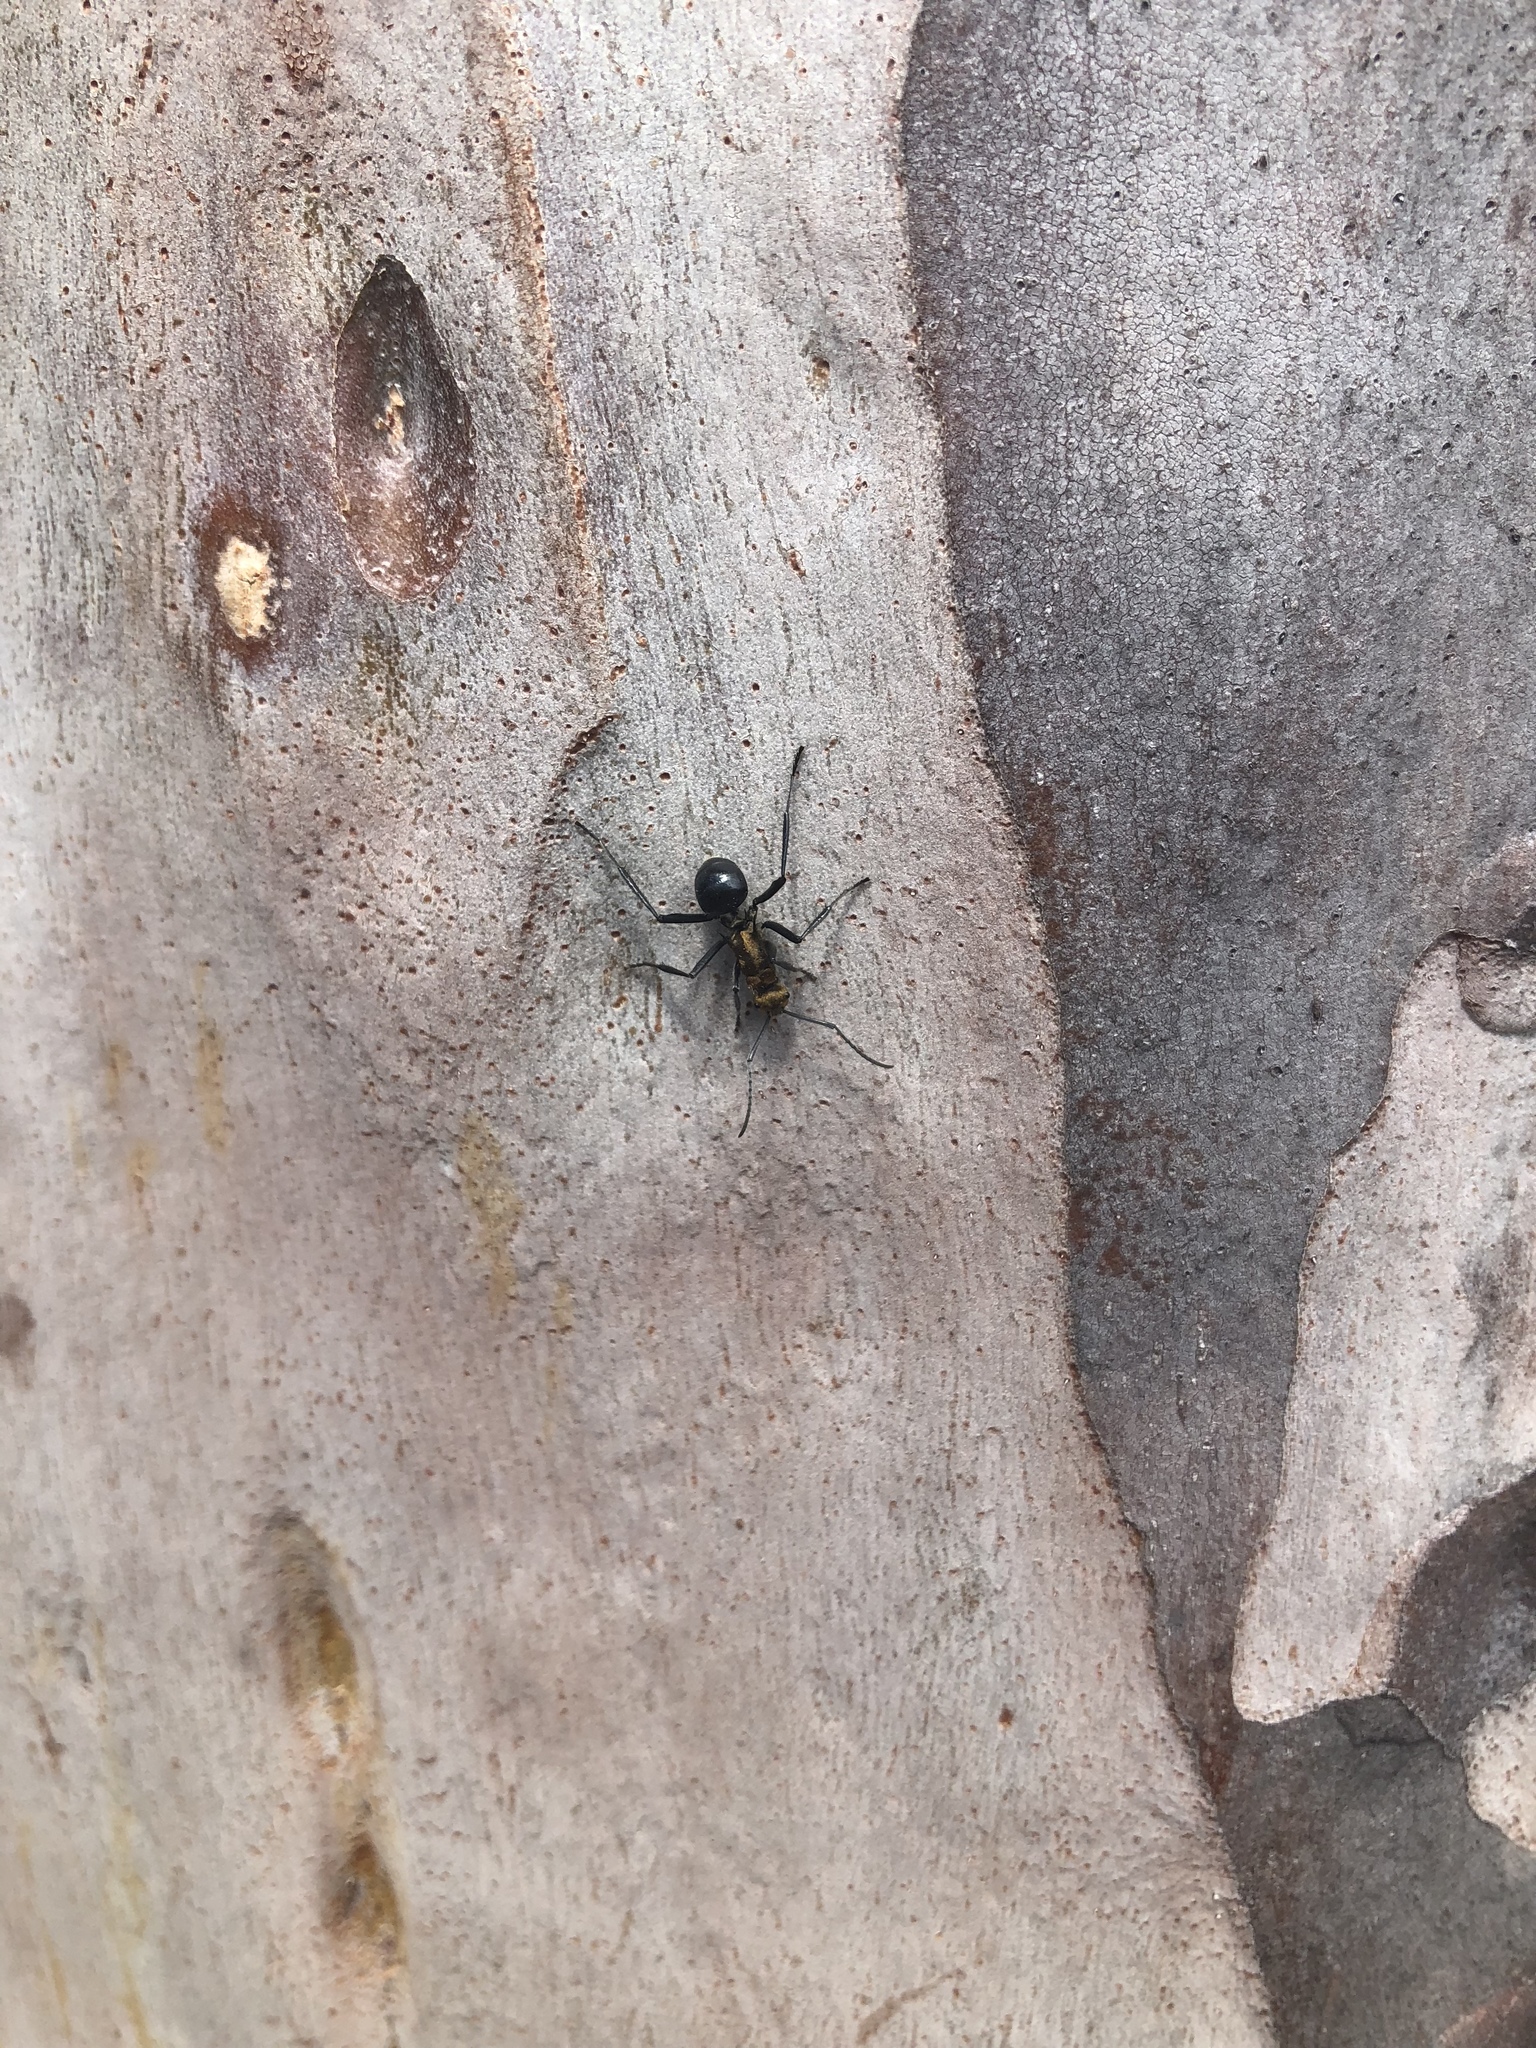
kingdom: Animalia
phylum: Arthropoda
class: Insecta
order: Hymenoptera
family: Formicidae
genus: Polyrhachis
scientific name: Polyrhachis semiaurata
